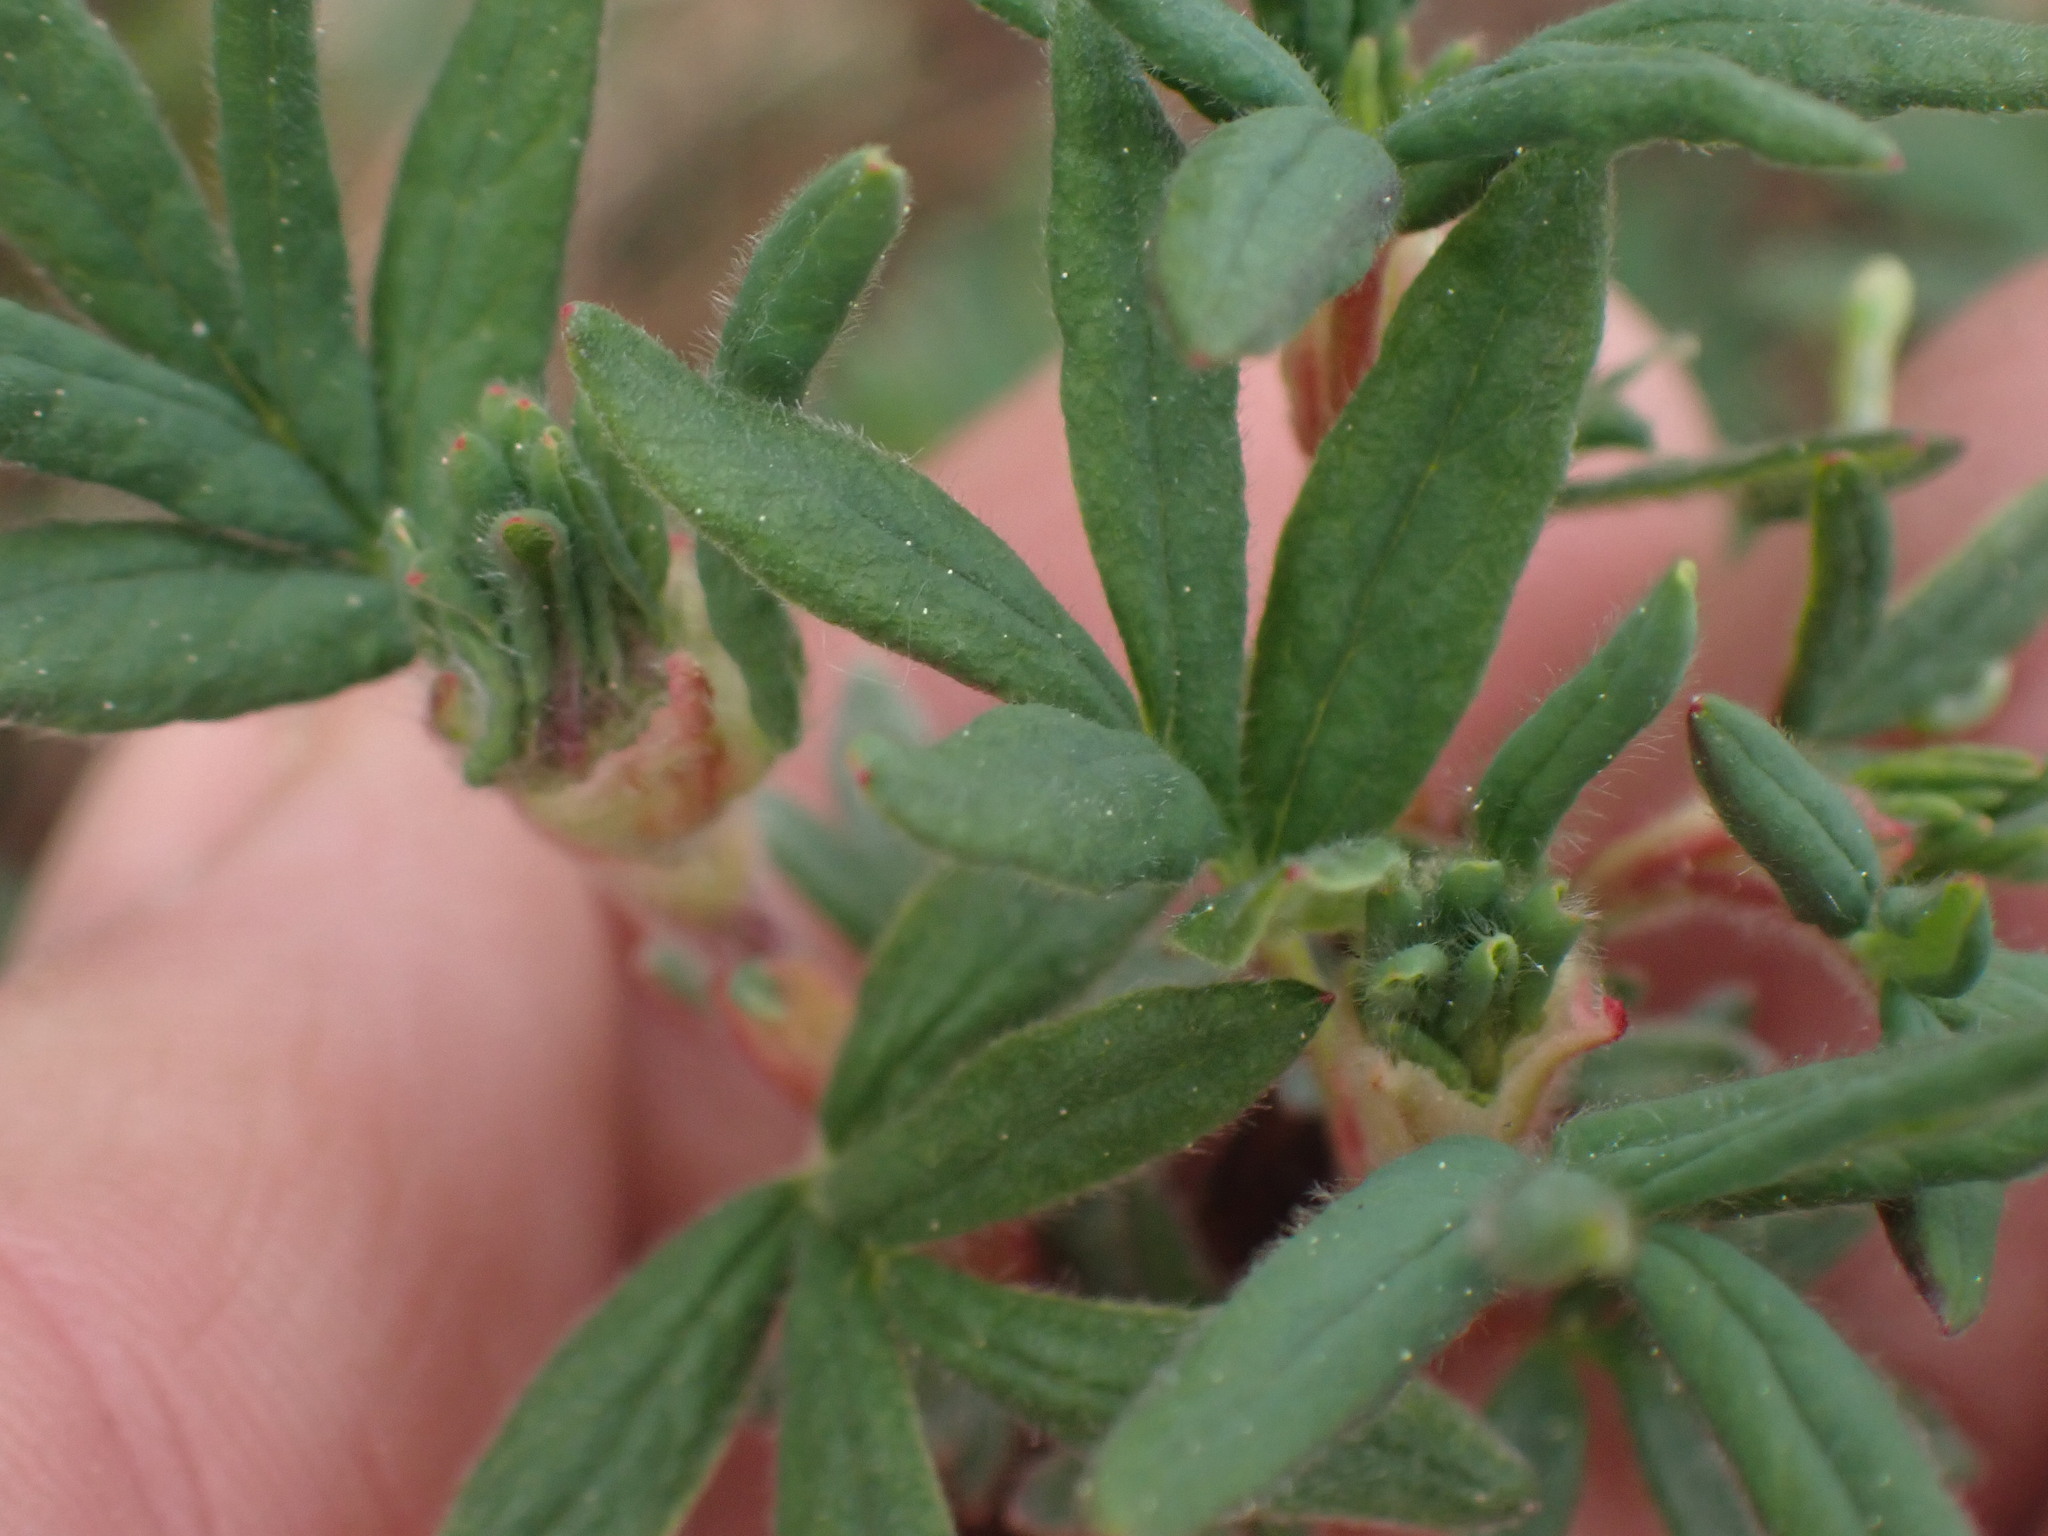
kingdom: Plantae
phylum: Tracheophyta
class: Magnoliopsida
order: Rosales
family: Rosaceae
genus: Dasiphora
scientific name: Dasiphora fruticosa
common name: Shrubby cinquefoil
